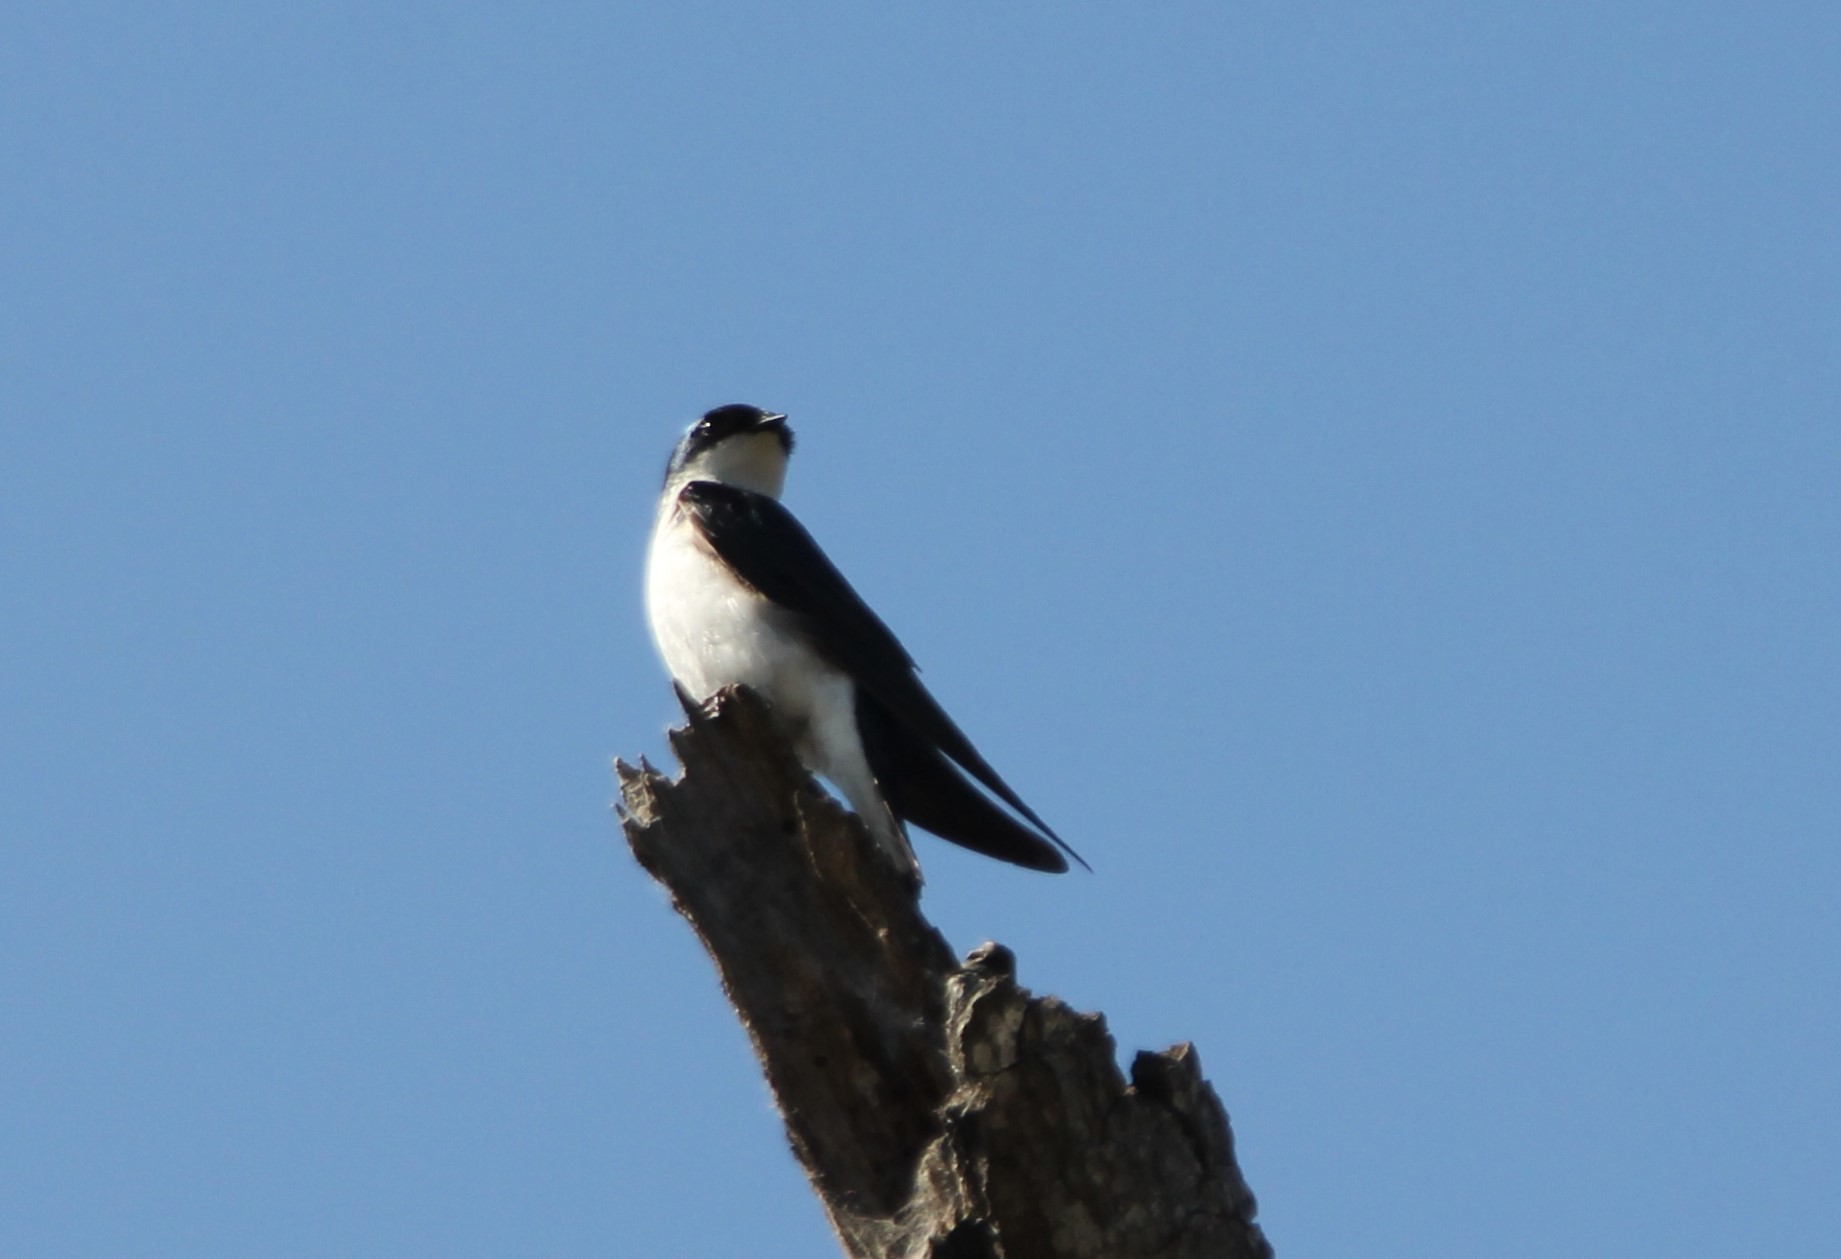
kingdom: Animalia
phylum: Chordata
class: Aves
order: Passeriformes
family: Hirundinidae
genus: Tachycineta
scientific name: Tachycineta bicolor
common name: Tree swallow
